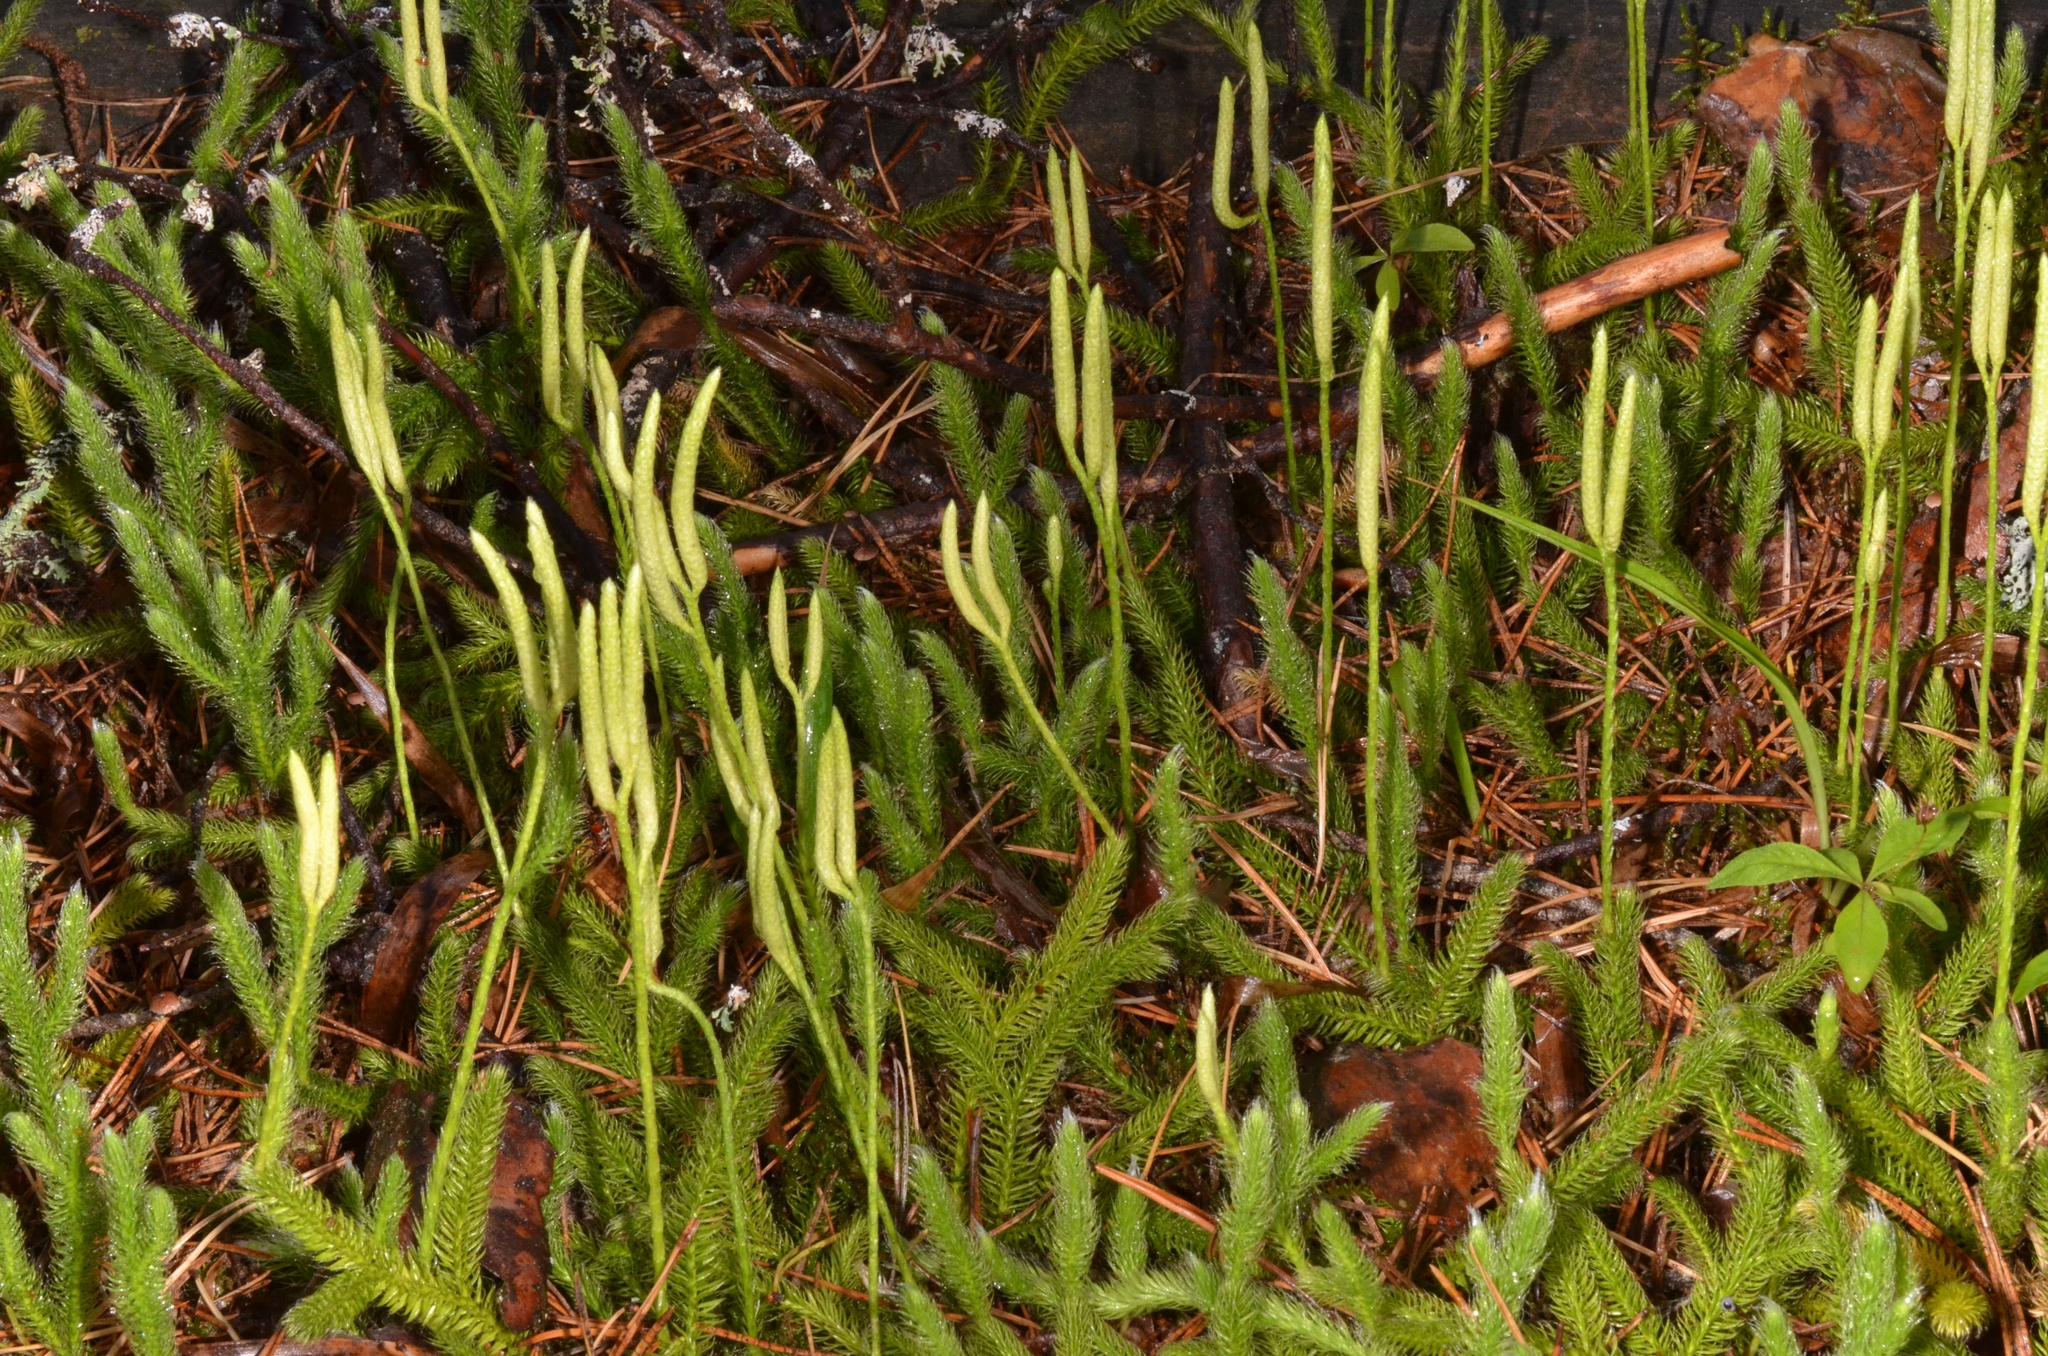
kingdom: Plantae
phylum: Tracheophyta
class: Lycopodiopsida
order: Lycopodiales
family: Lycopodiaceae
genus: Lycopodium
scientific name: Lycopodium clavatum
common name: Stag's-horn clubmoss
